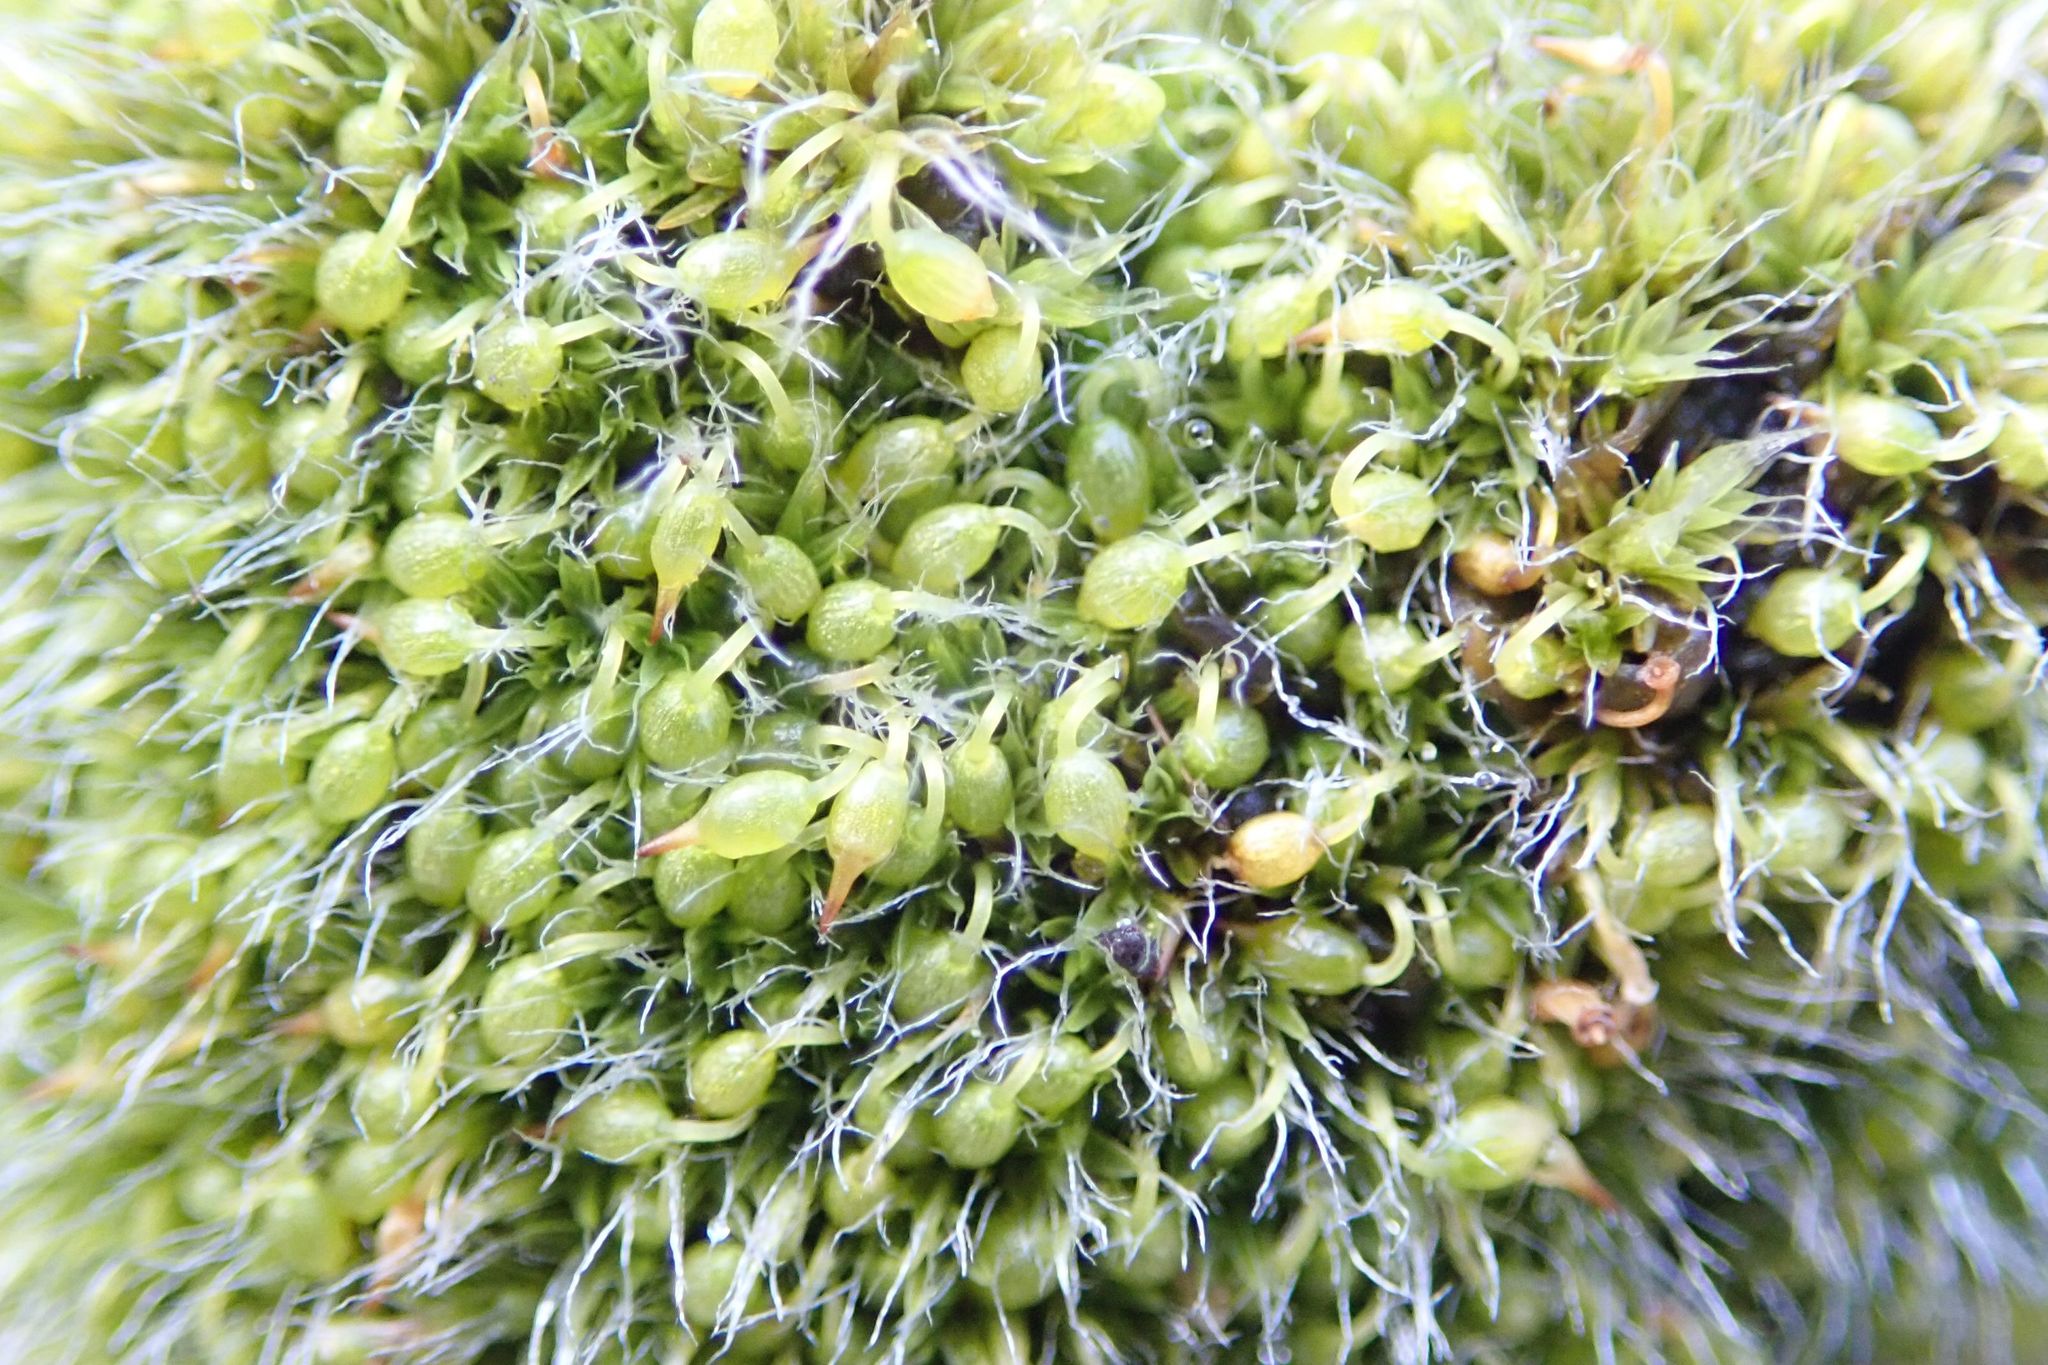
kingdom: Plantae
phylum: Bryophyta
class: Bryopsida
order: Grimmiales
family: Grimmiaceae
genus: Grimmia
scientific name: Grimmia pulvinata
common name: Grey-cushioned grimmia
